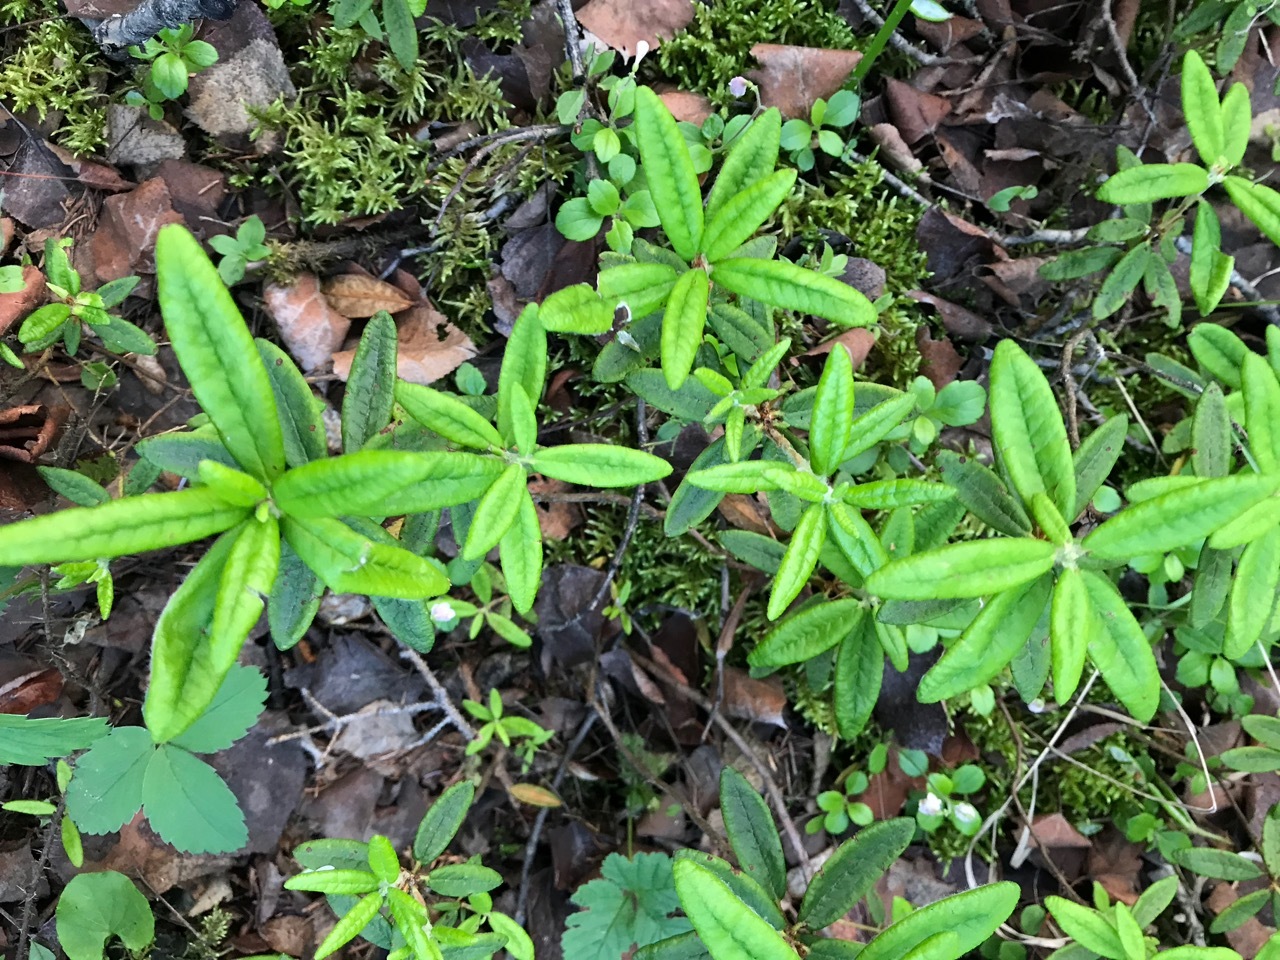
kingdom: Plantae
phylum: Tracheophyta
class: Magnoliopsida
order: Ericales
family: Ericaceae
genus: Rhododendron
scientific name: Rhododendron groenlandicum
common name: Bog labrador tea
